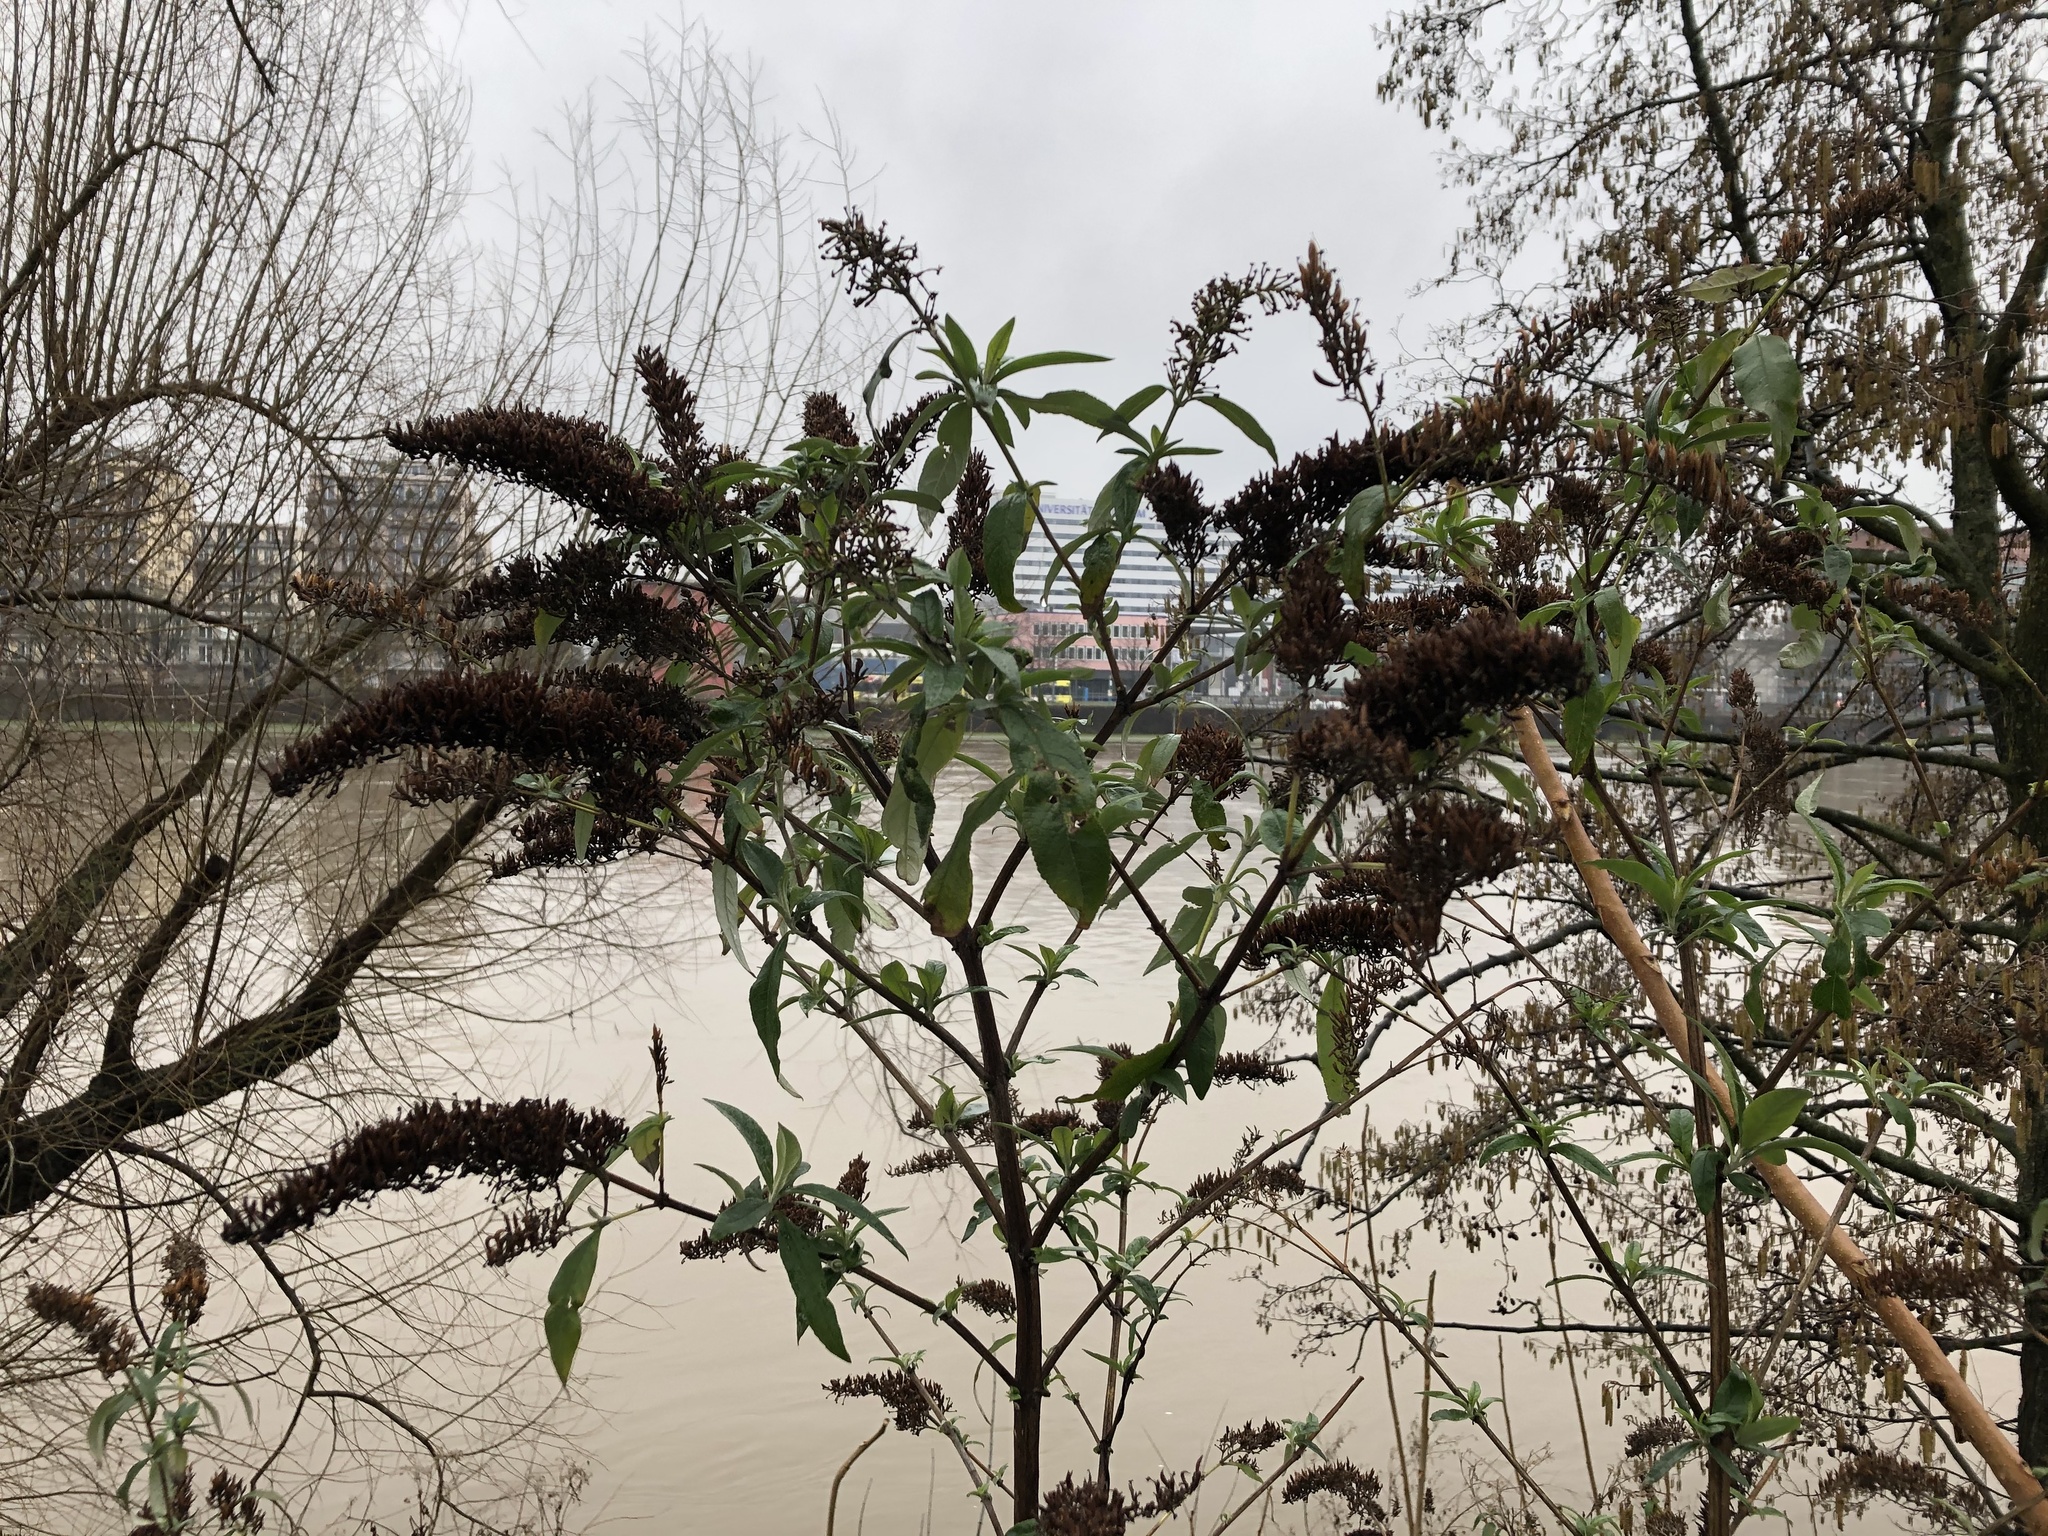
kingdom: Plantae
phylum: Tracheophyta
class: Magnoliopsida
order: Lamiales
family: Scrophulariaceae
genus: Buddleja
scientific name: Buddleja davidii
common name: Butterfly-bush
